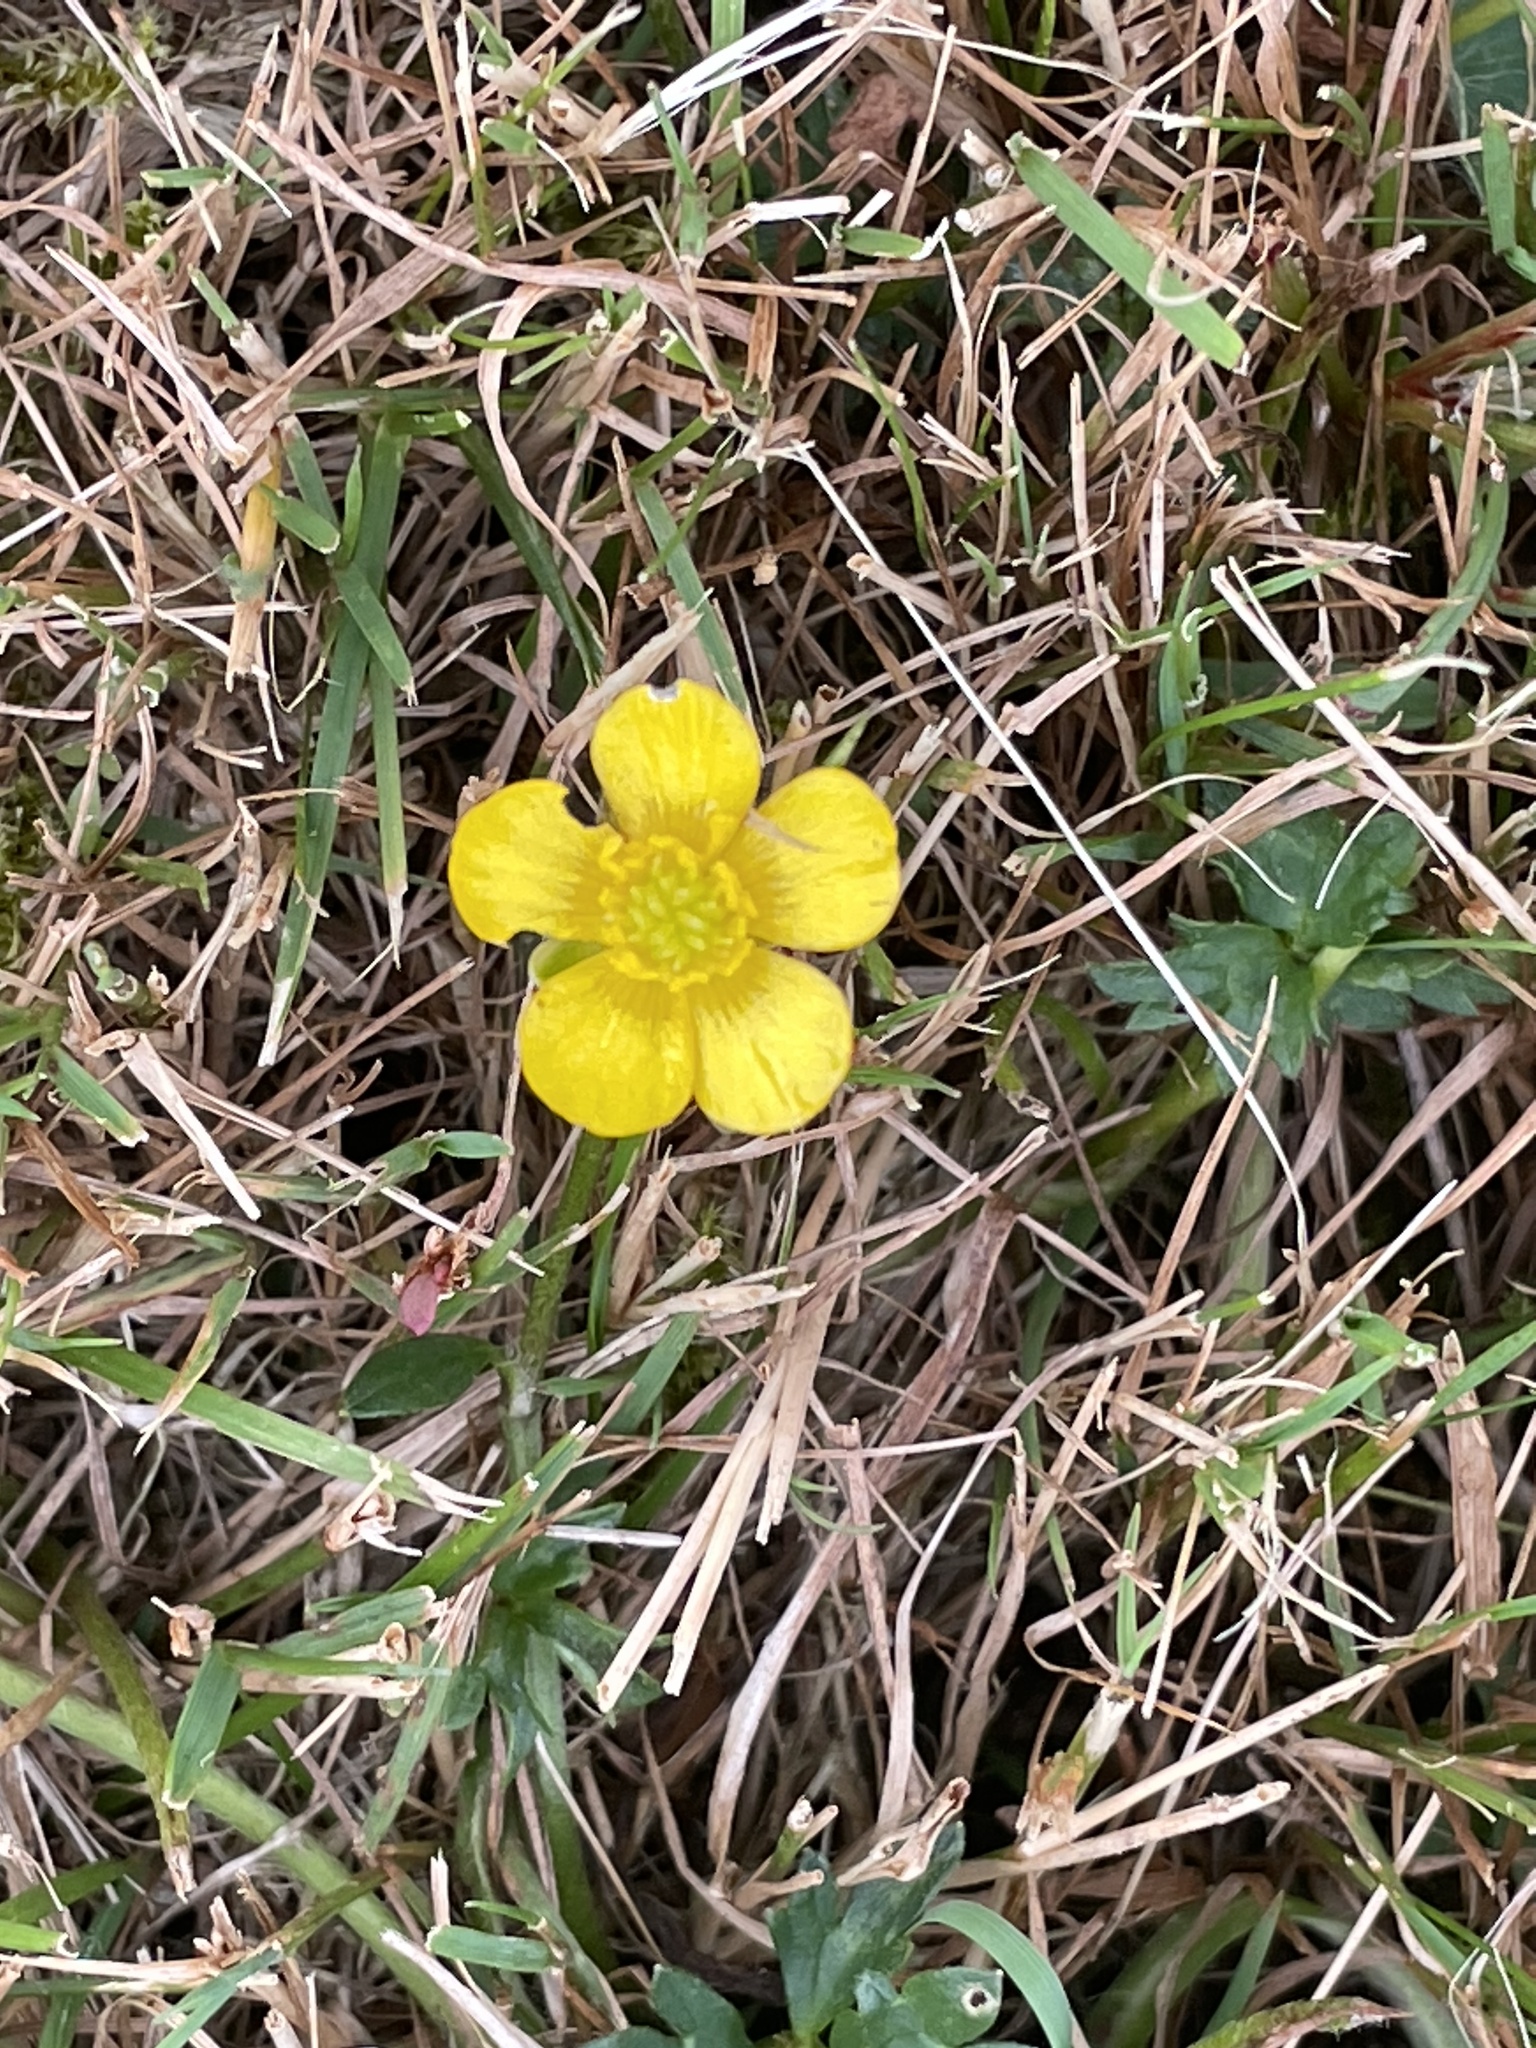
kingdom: Plantae
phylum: Tracheophyta
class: Magnoliopsida
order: Ranunculales
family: Ranunculaceae
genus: Ranunculus
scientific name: Ranunculus acris
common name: Meadow buttercup
